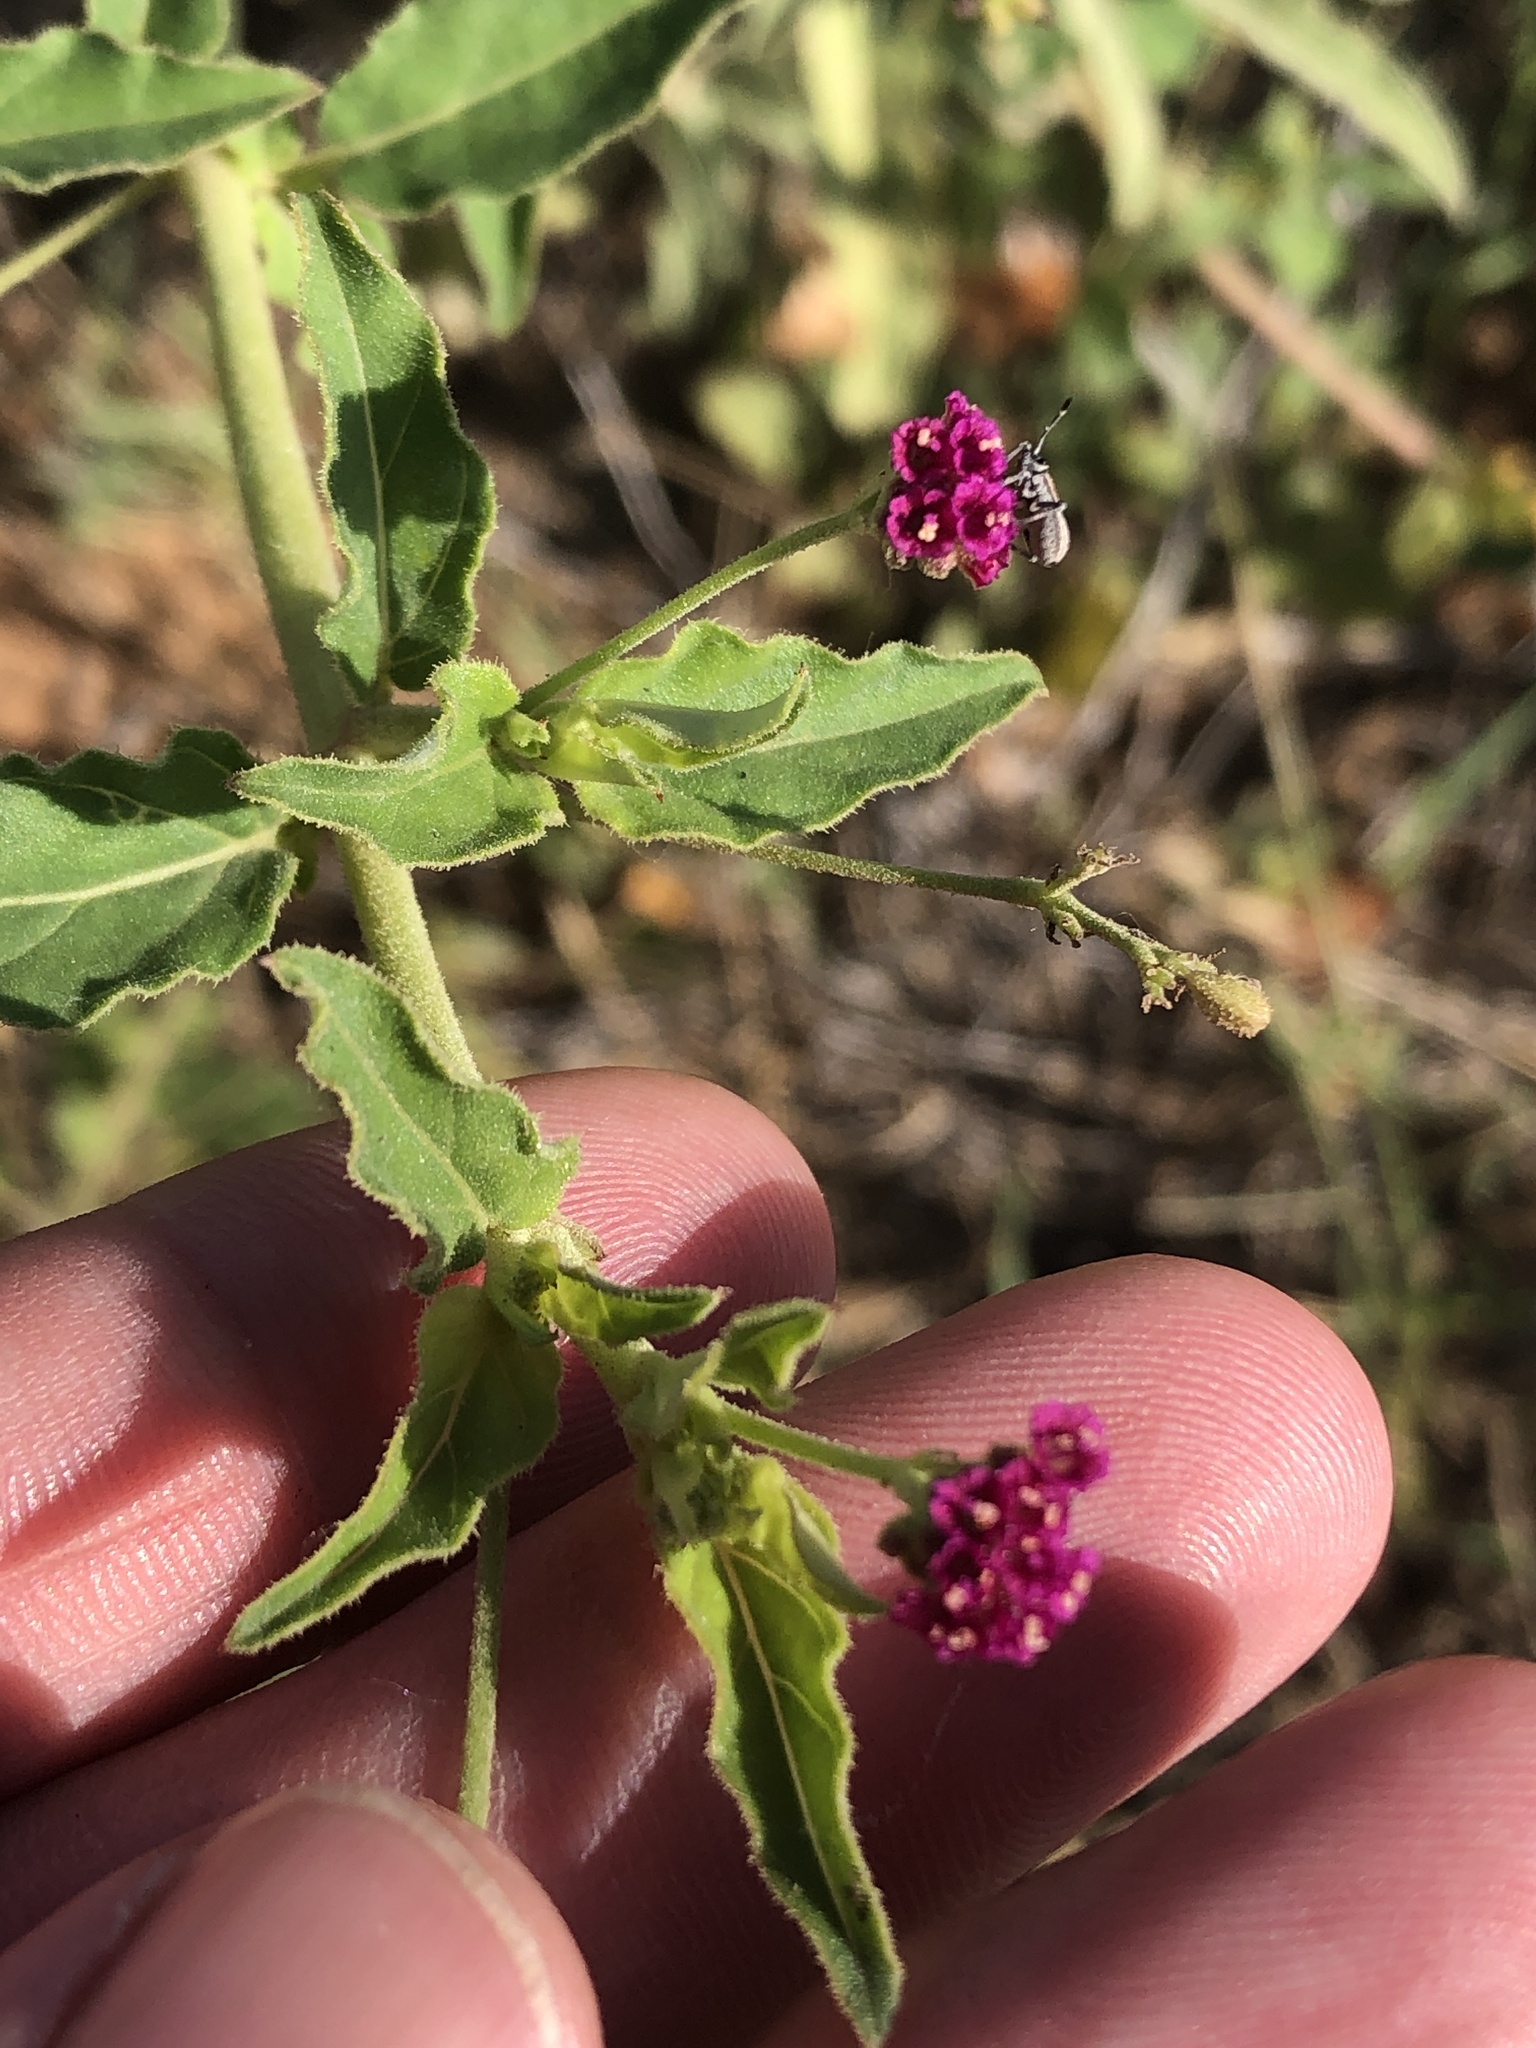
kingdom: Plantae
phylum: Tracheophyta
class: Magnoliopsida
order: Caryophyllales
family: Nyctaginaceae
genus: Boerhavia
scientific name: Boerhavia coccinea
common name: Scarlet spiderling
